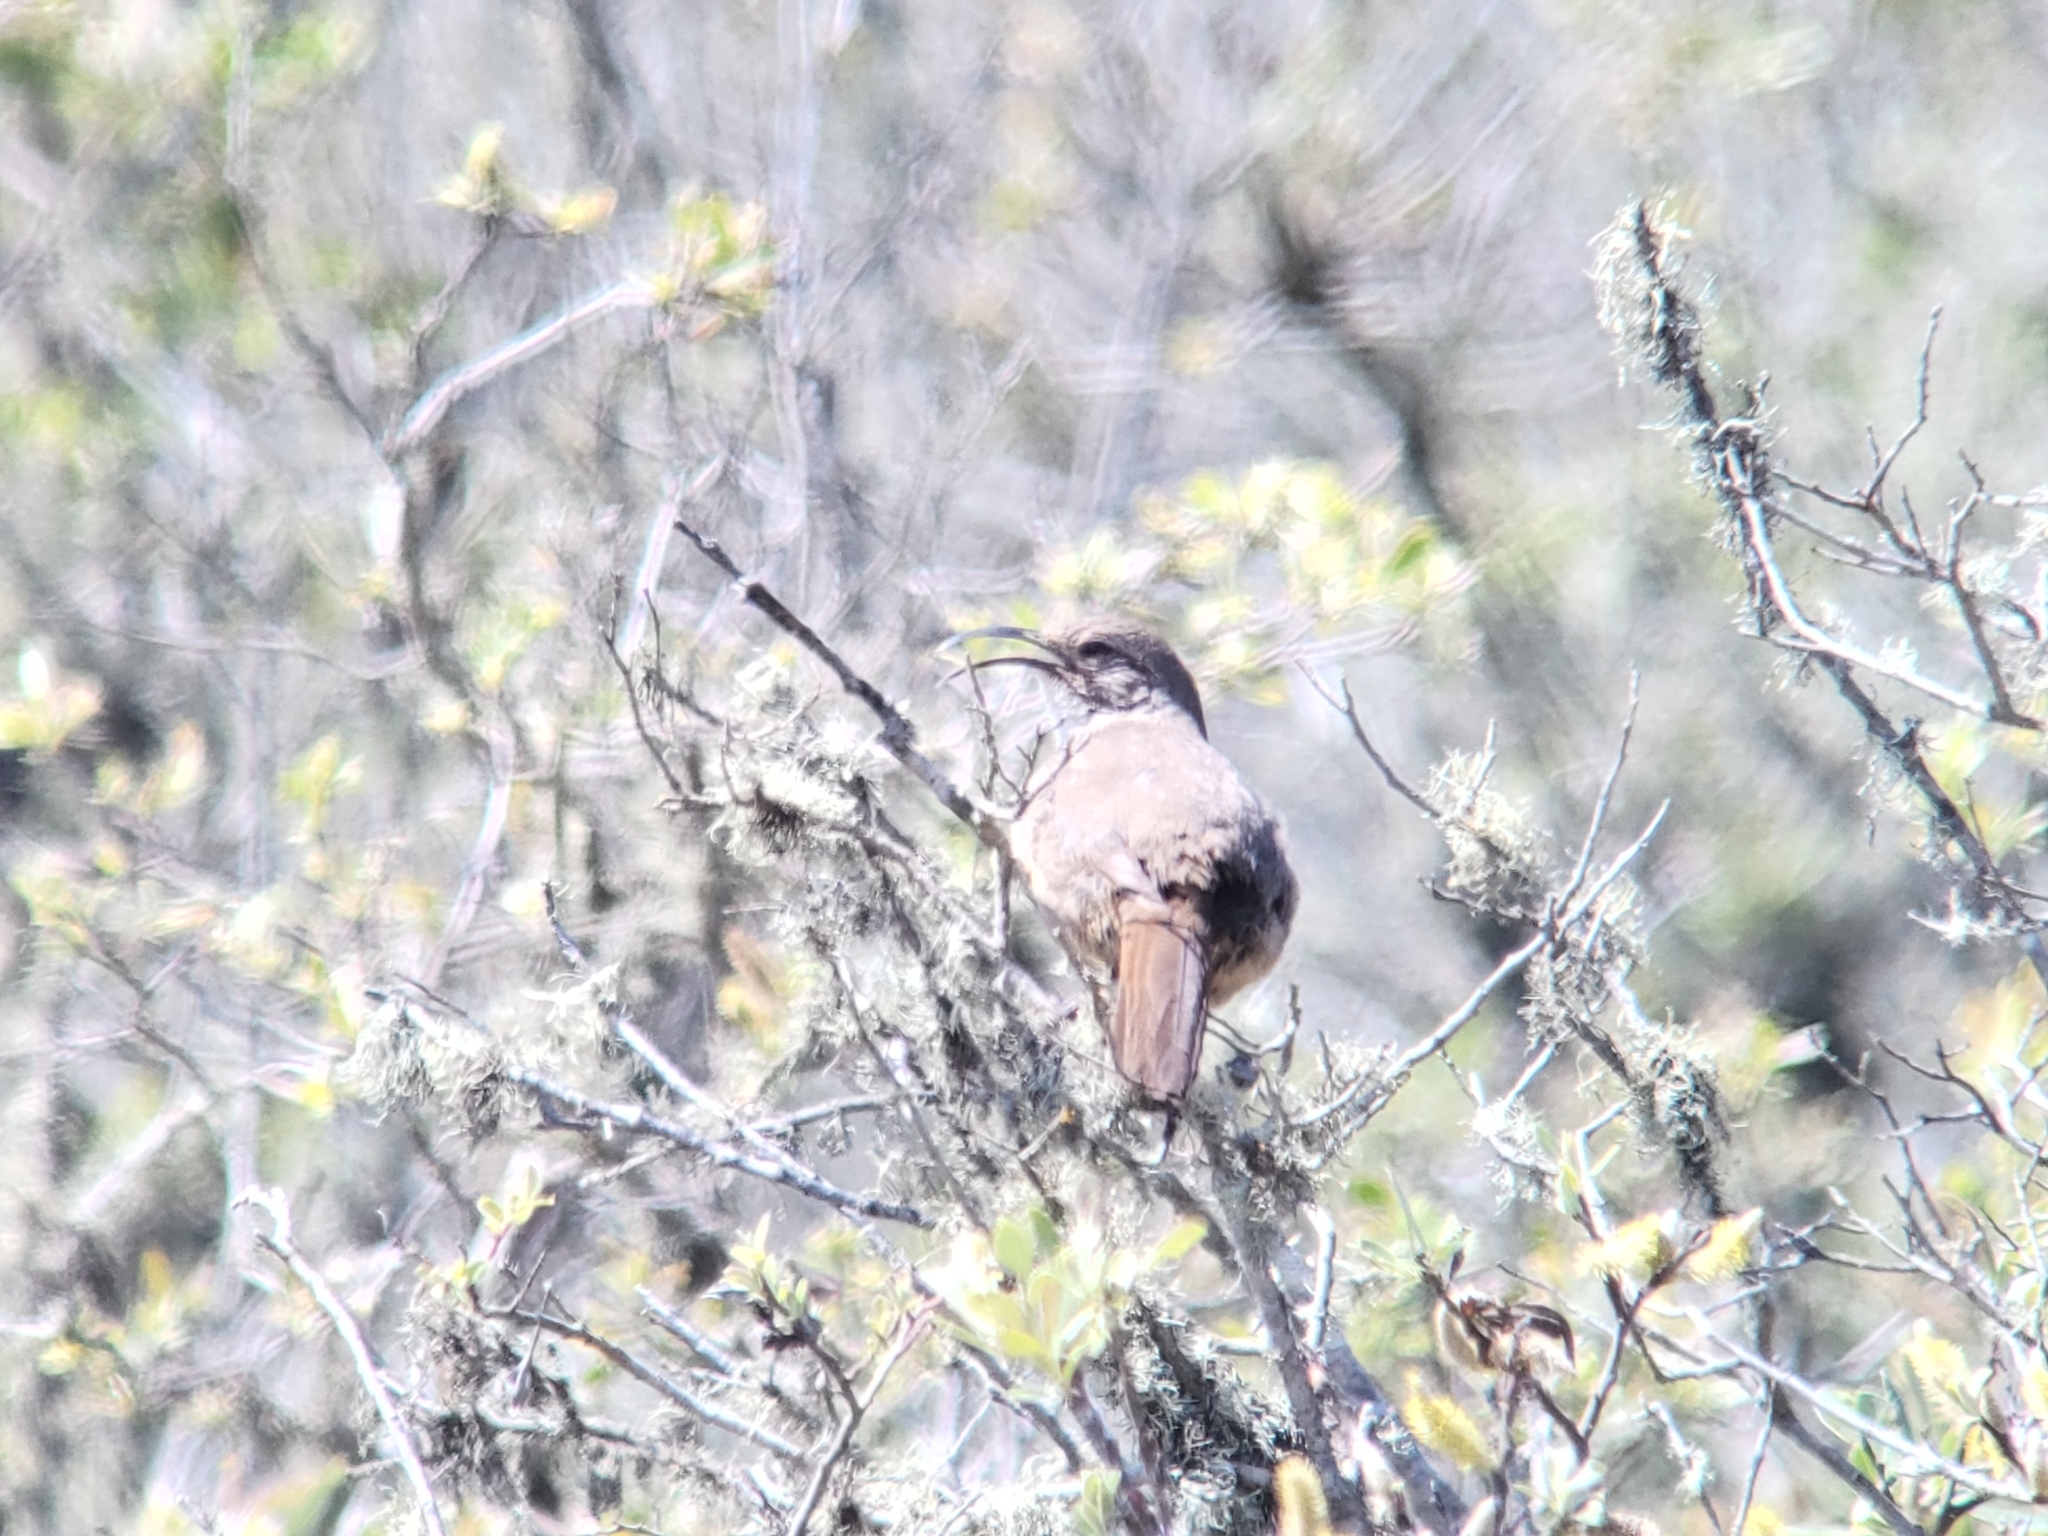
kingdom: Animalia
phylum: Chordata
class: Aves
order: Passeriformes
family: Mimidae
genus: Toxostoma
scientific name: Toxostoma redivivum
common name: California thrasher
